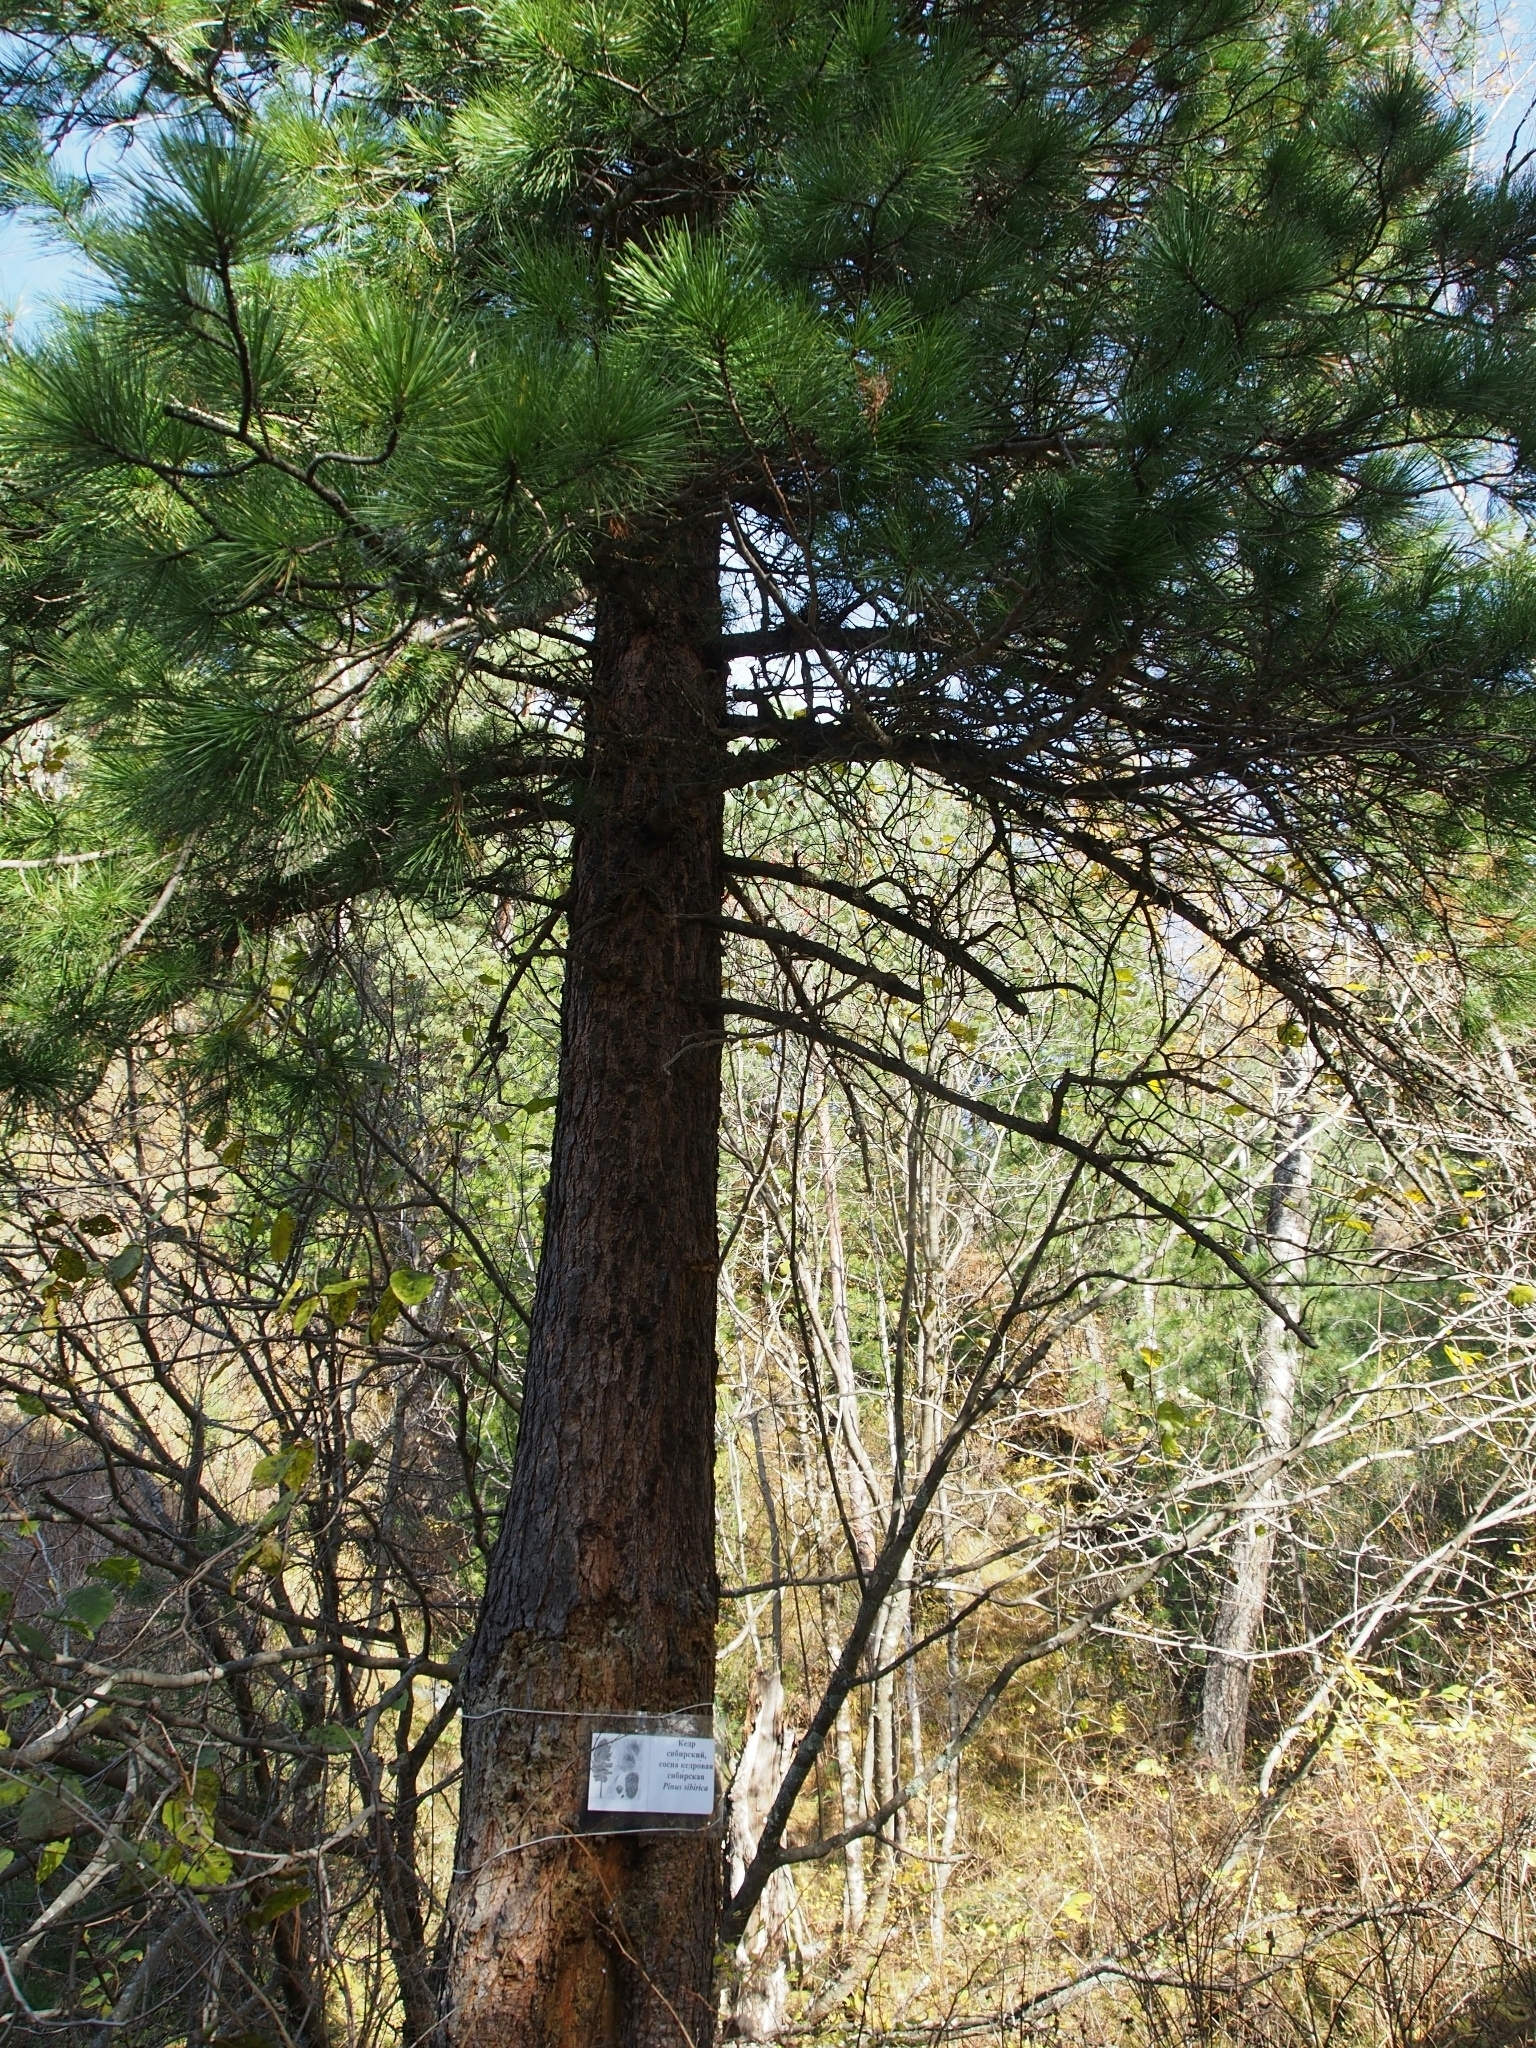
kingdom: Plantae
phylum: Tracheophyta
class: Pinopsida
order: Pinales
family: Pinaceae
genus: Pinus
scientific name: Pinus sibirica
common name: Siberian pine
